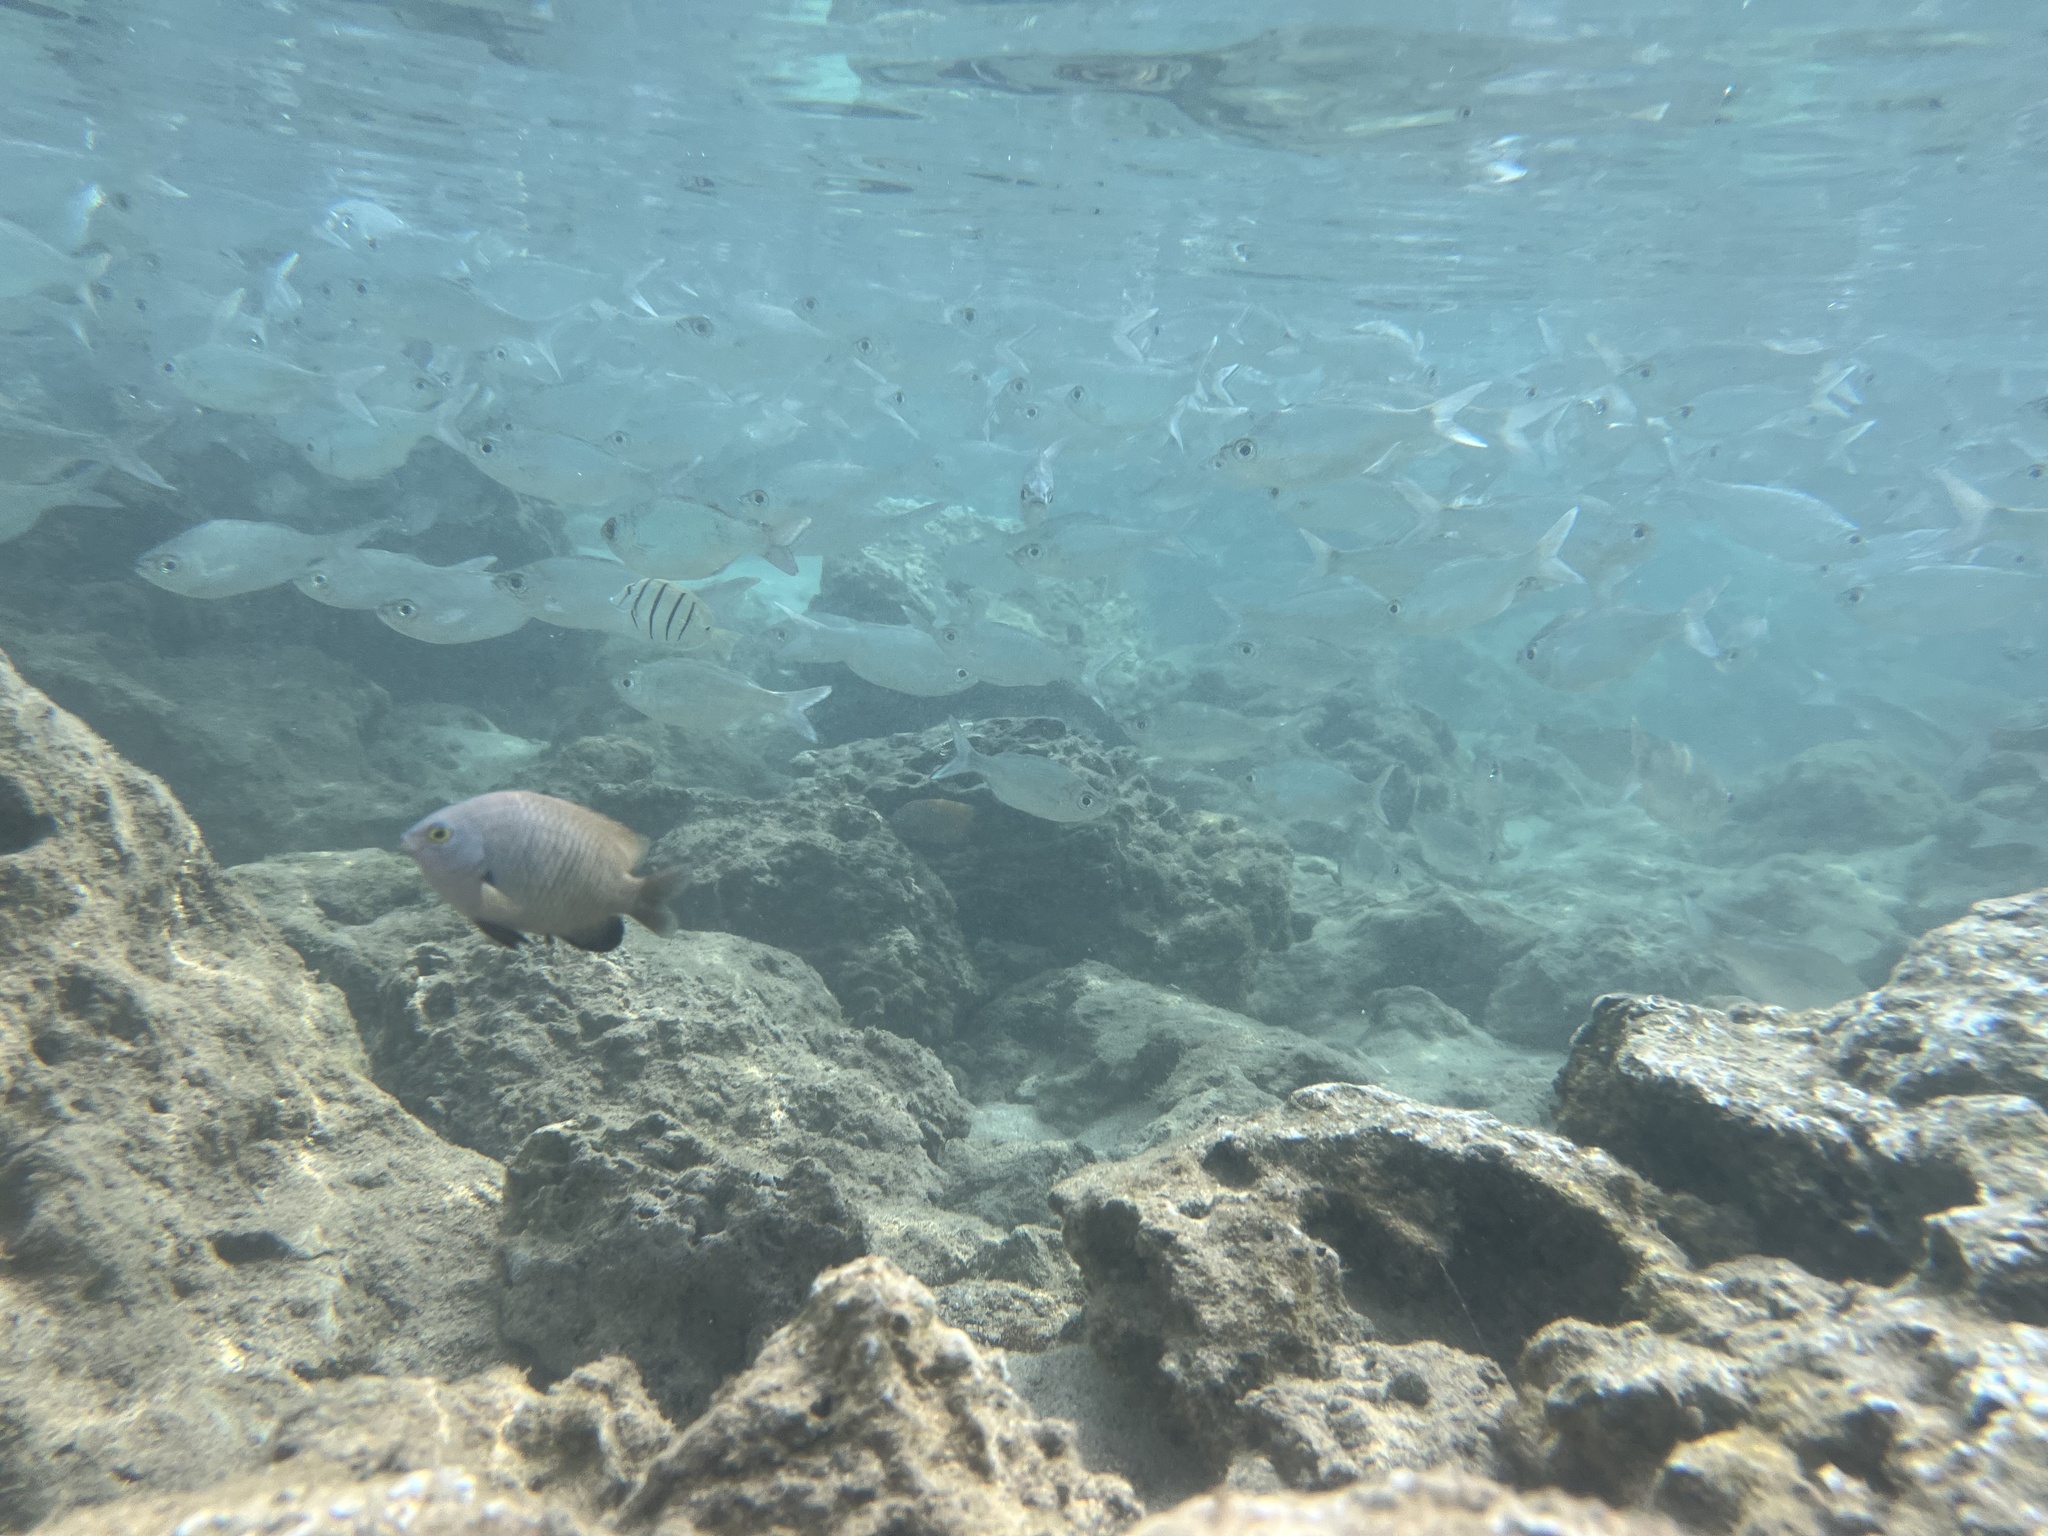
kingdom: Animalia
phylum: Chordata
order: Mugiliformes
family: Mugilidae
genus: Neomyxus
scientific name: Neomyxus leuciscus
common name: Acute-jawed mullet
